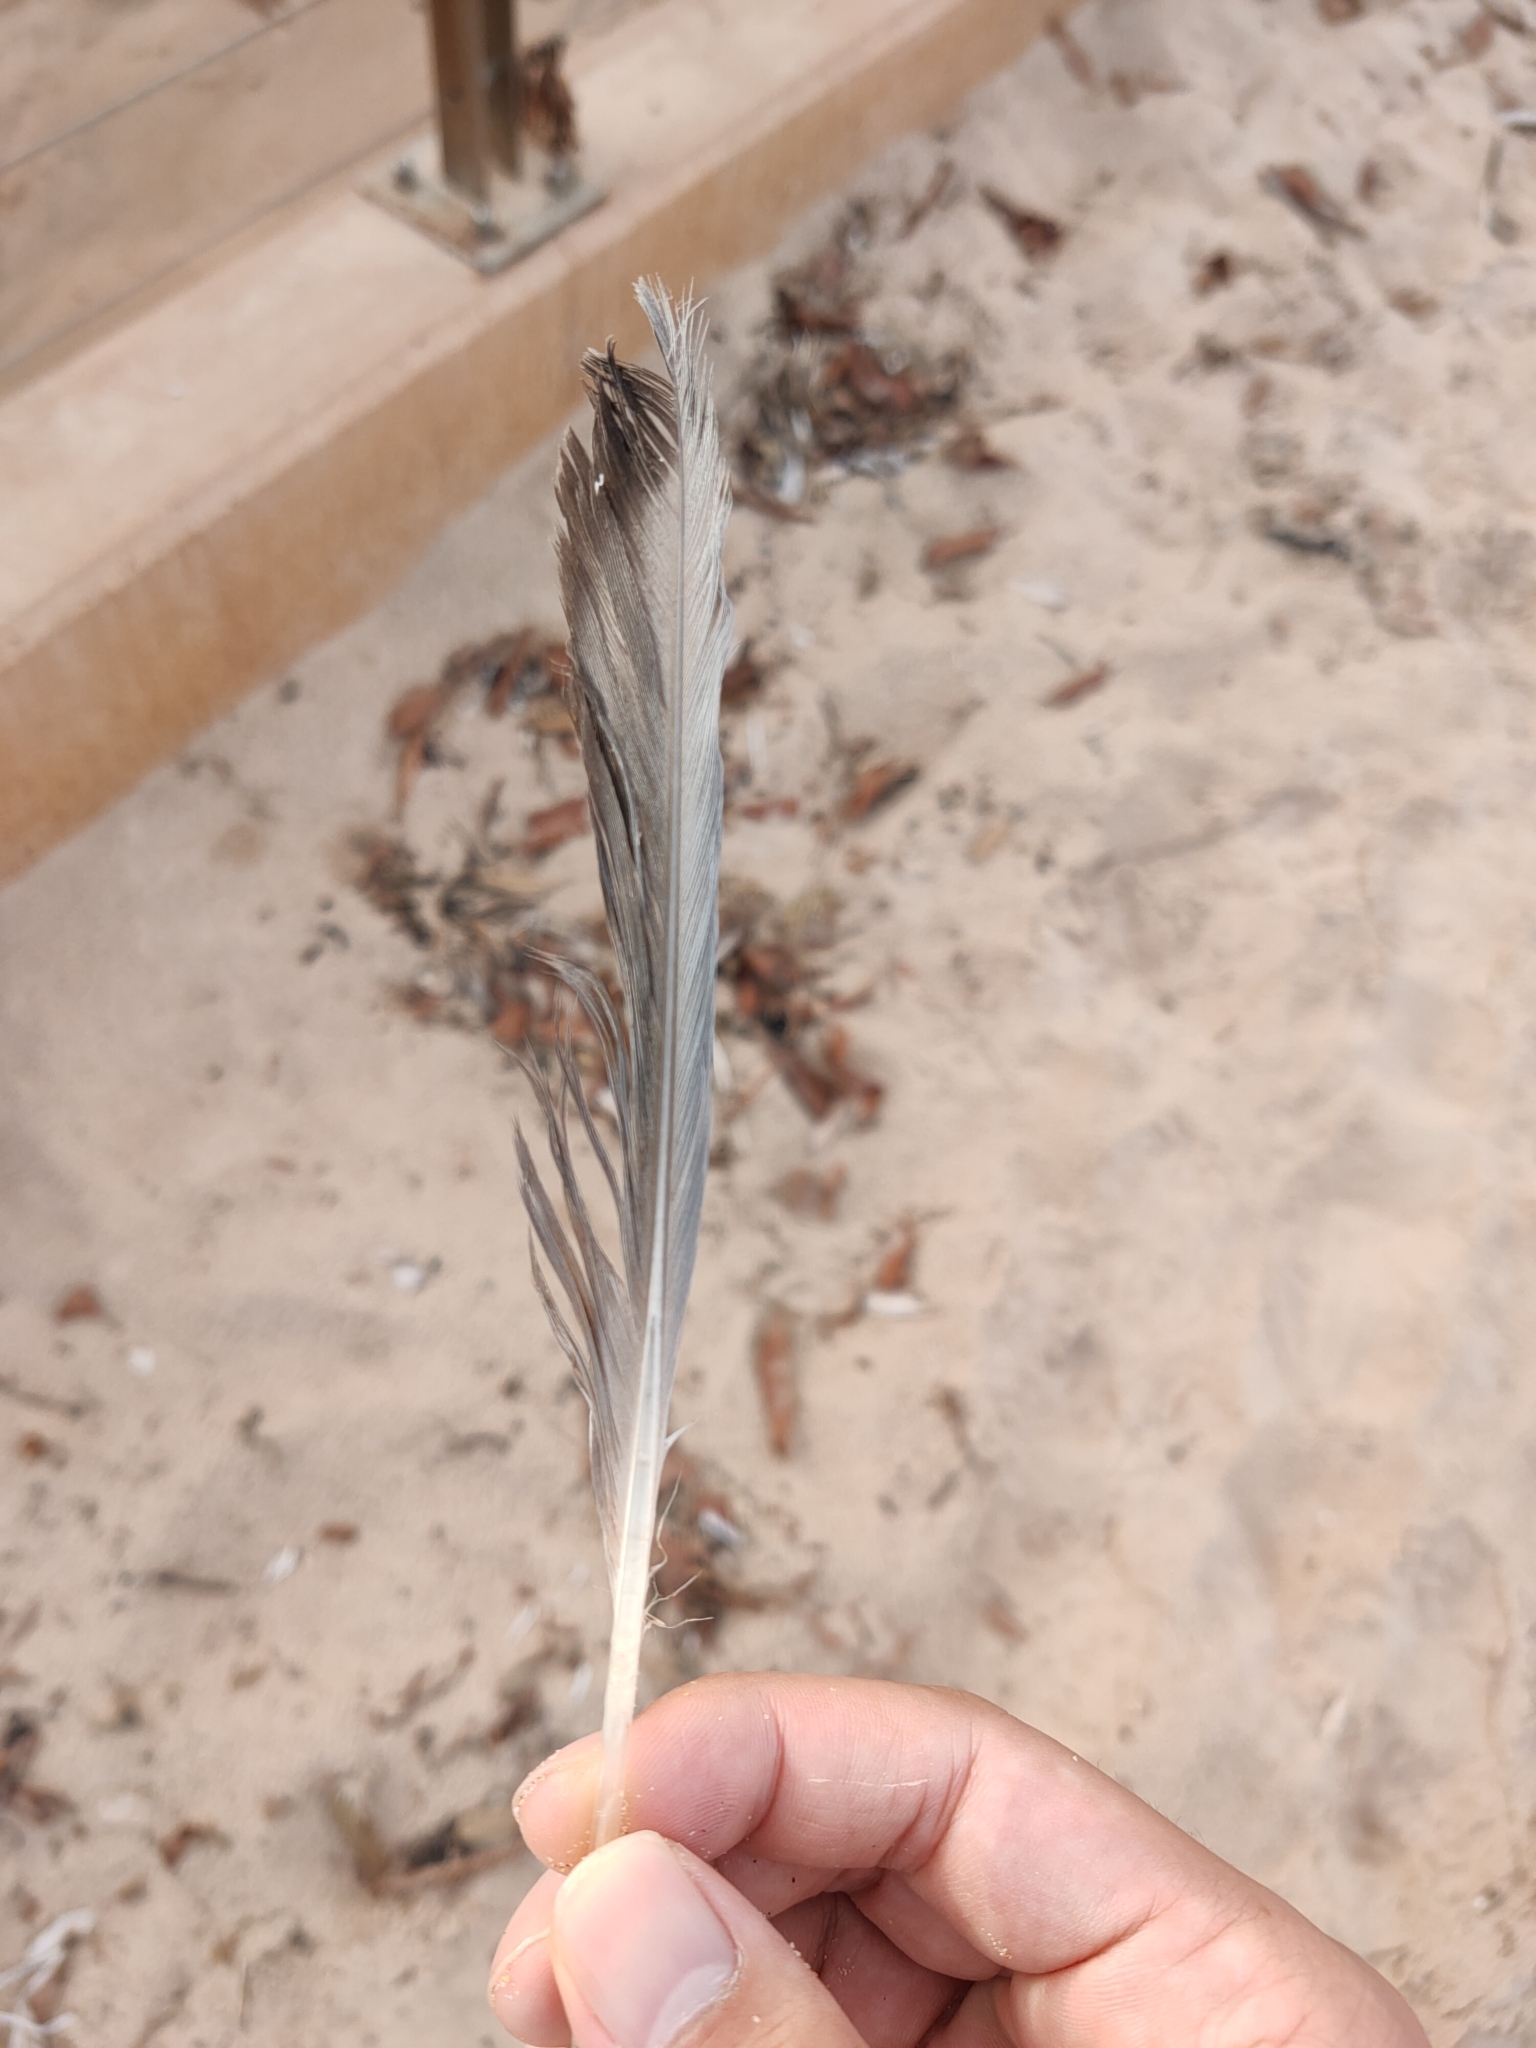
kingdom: Animalia
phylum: Chordata
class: Aves
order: Charadriiformes
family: Laridae
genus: Chroicocephalus
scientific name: Chroicocephalus novaehollandiae
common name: Silver gull
